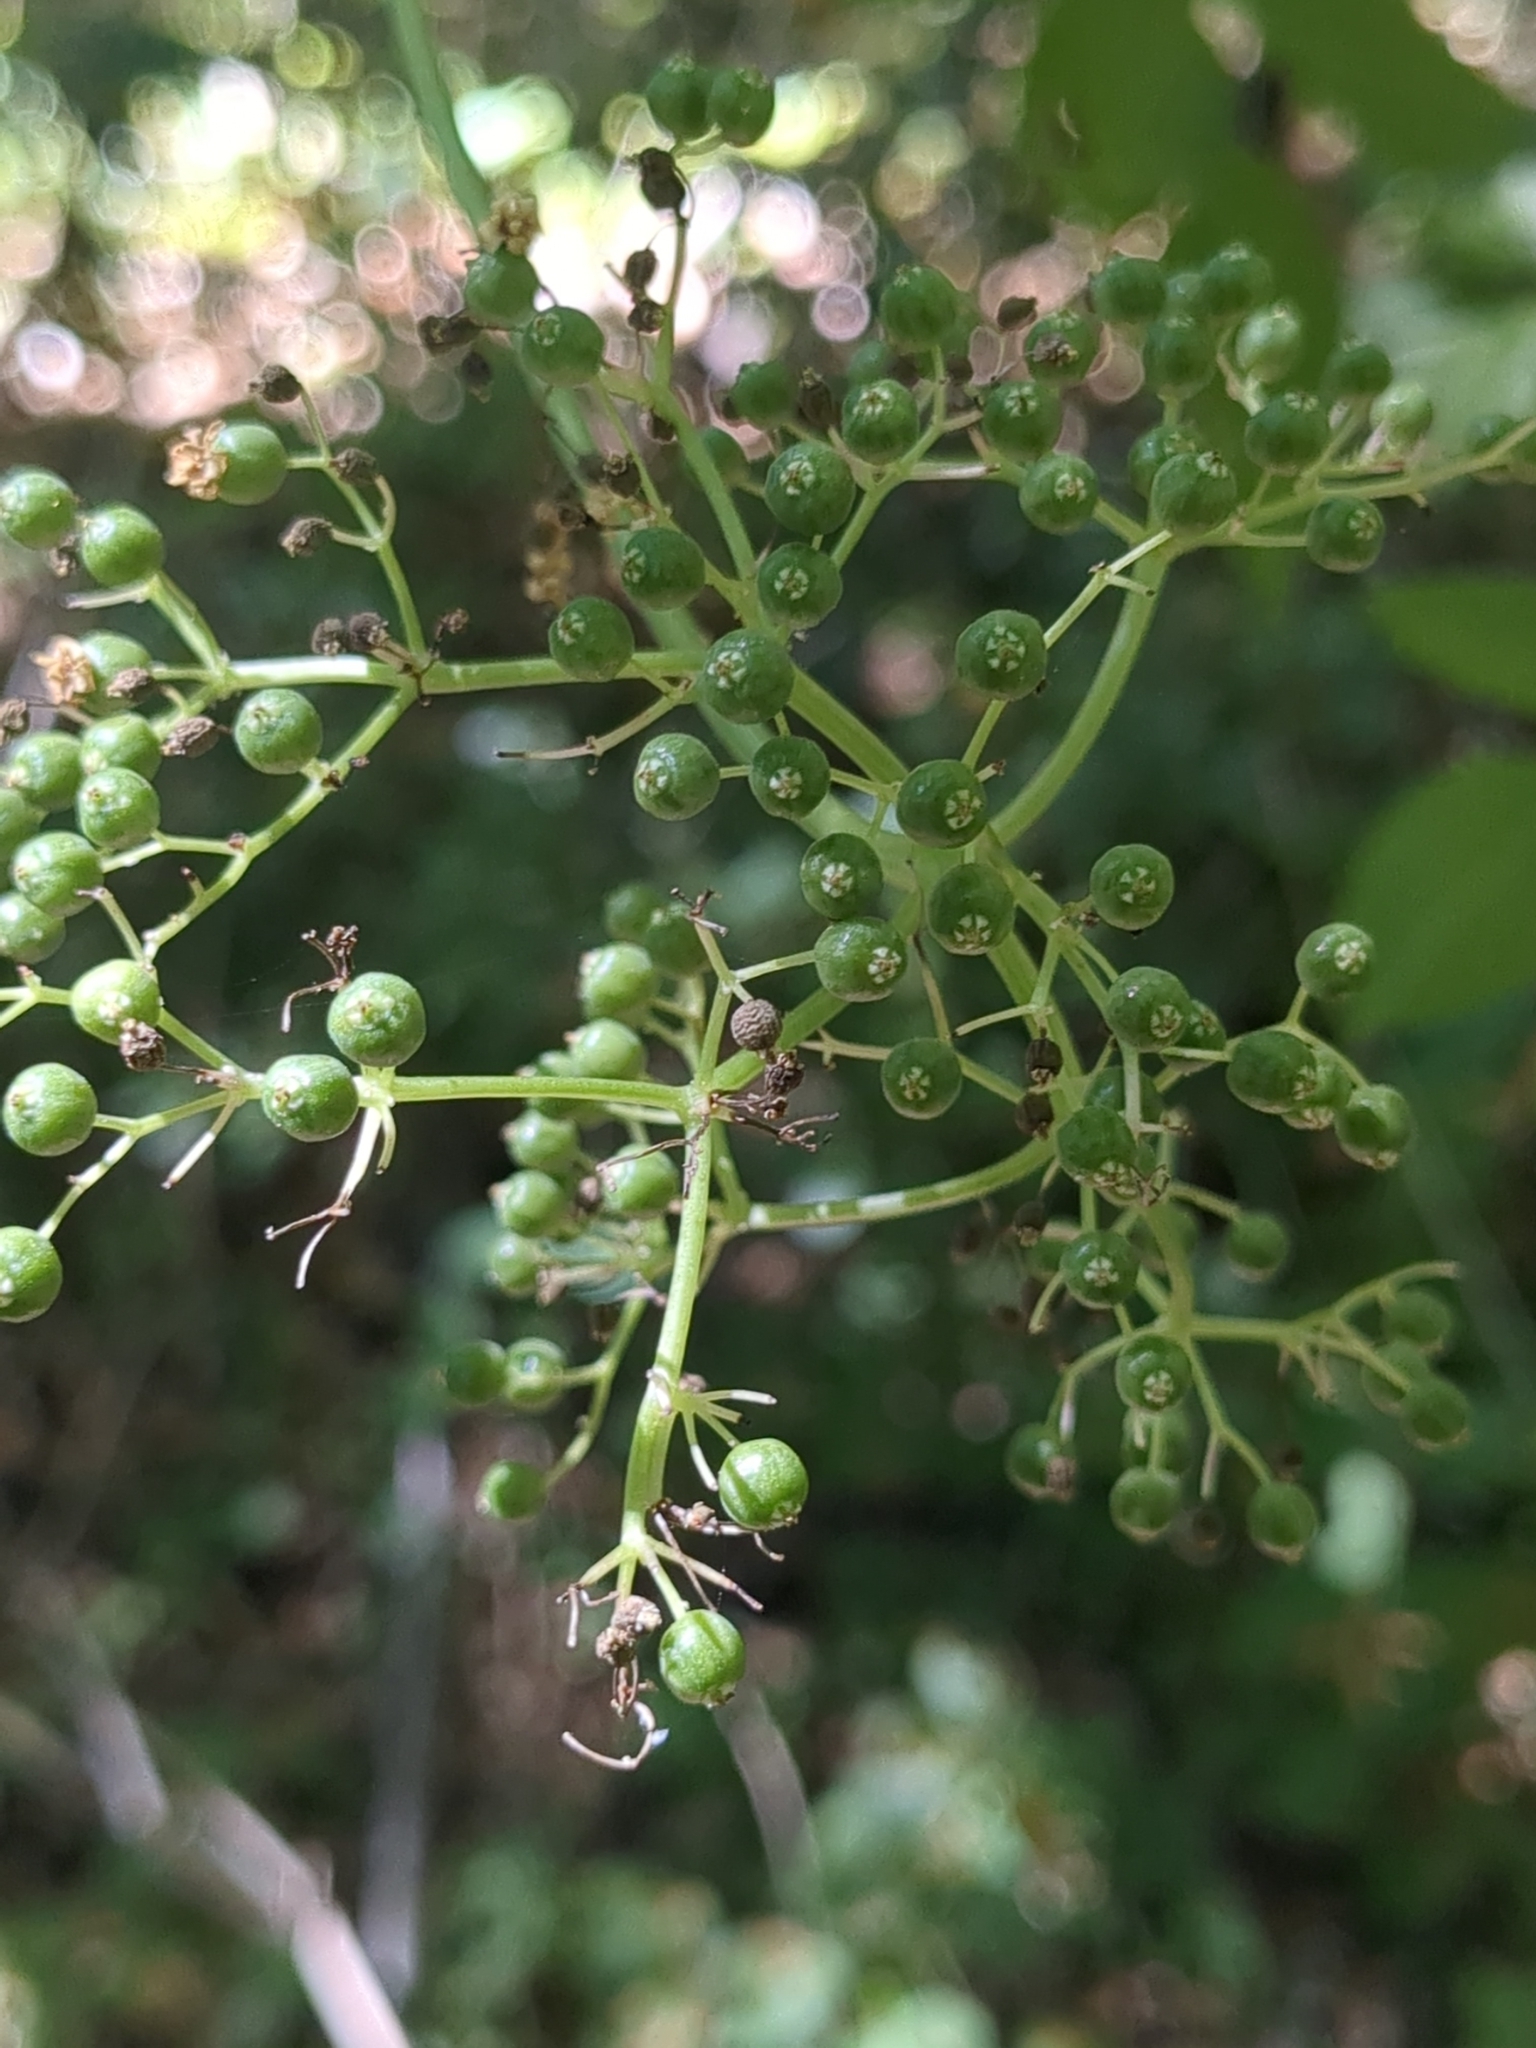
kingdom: Plantae
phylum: Tracheophyta
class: Magnoliopsida
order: Dipsacales
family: Viburnaceae
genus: Sambucus
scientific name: Sambucus cerulea
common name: Blue elder
